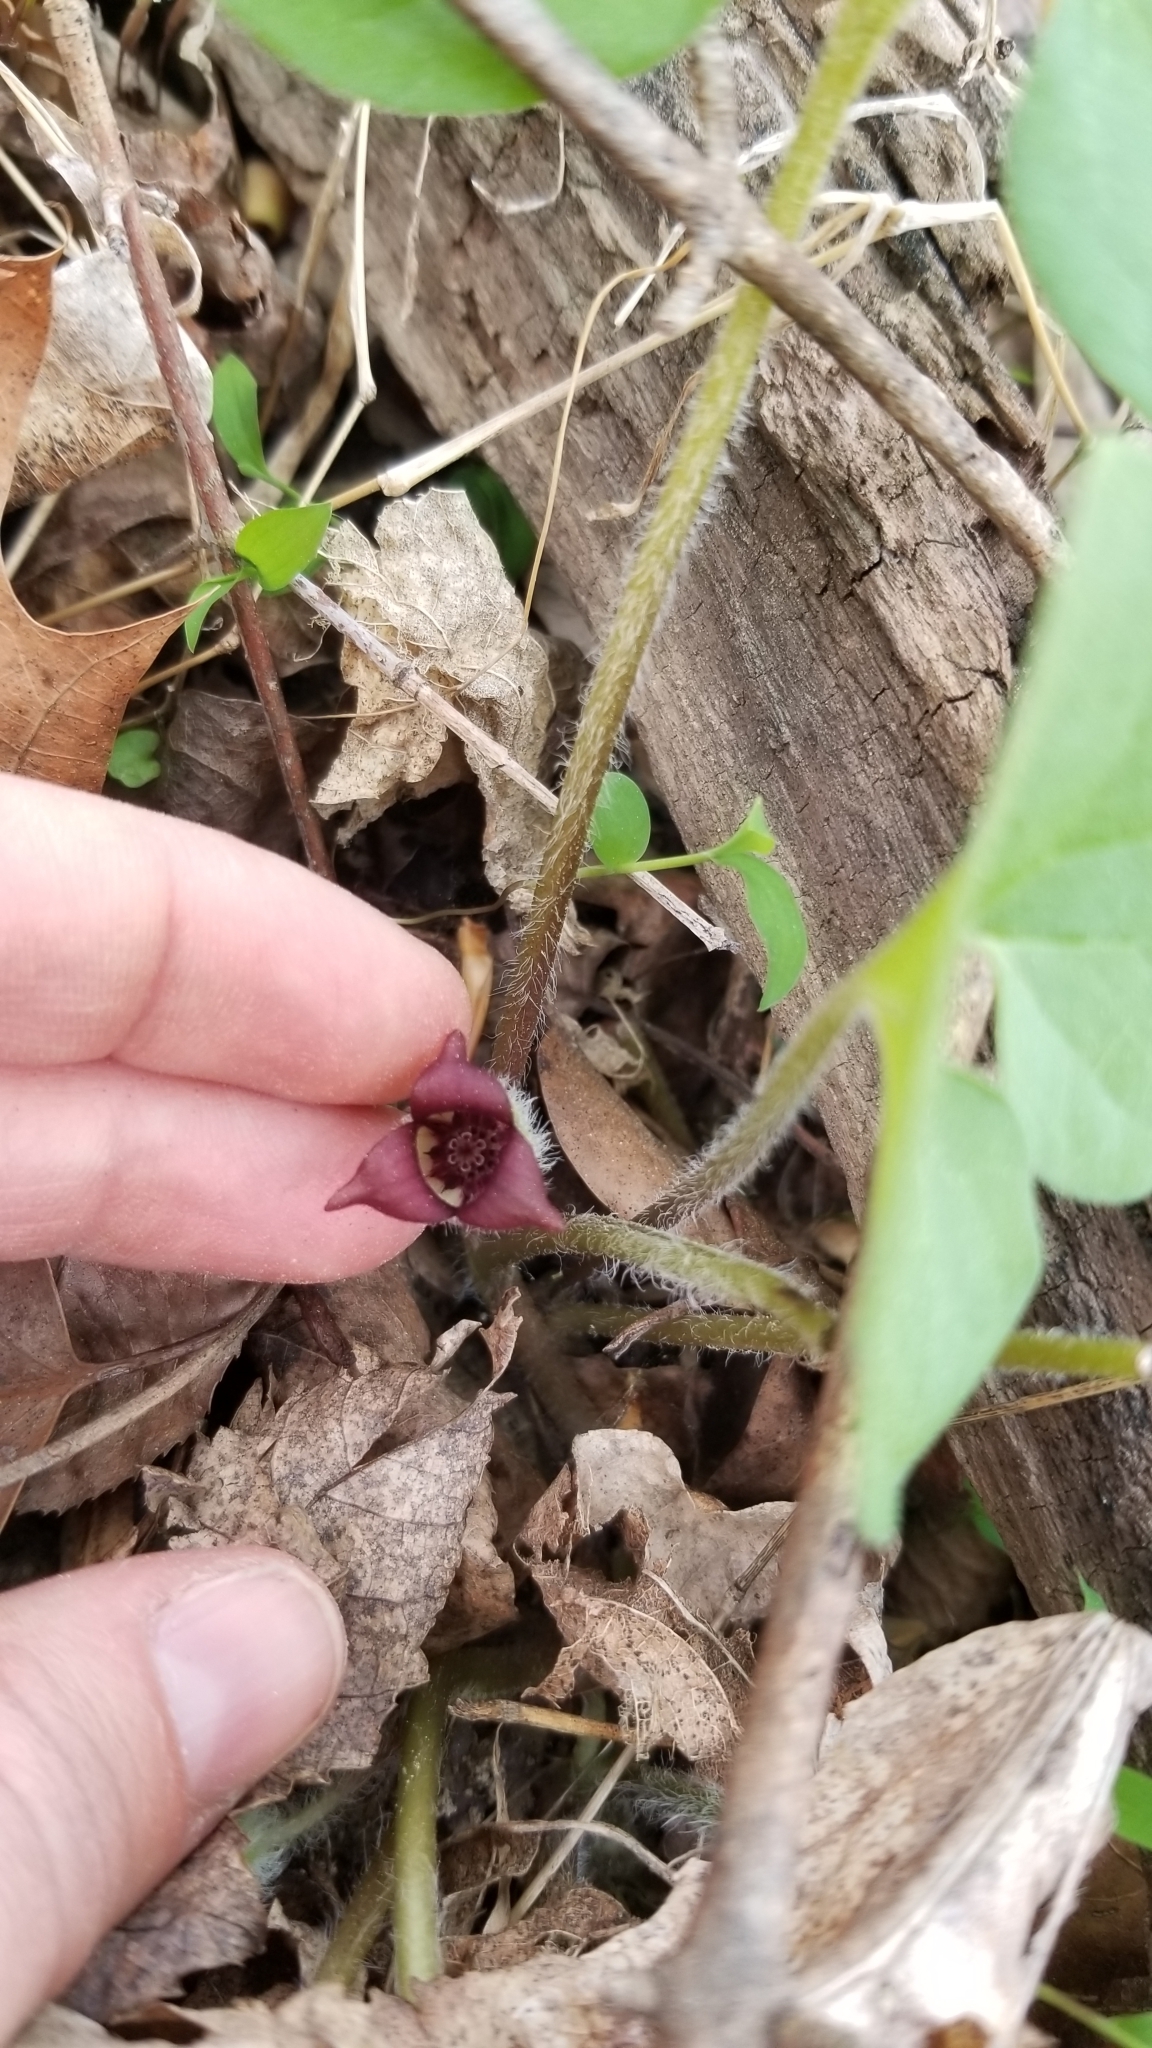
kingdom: Plantae
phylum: Tracheophyta
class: Magnoliopsida
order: Piperales
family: Aristolochiaceae
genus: Asarum
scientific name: Asarum canadense
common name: Wild ginger
